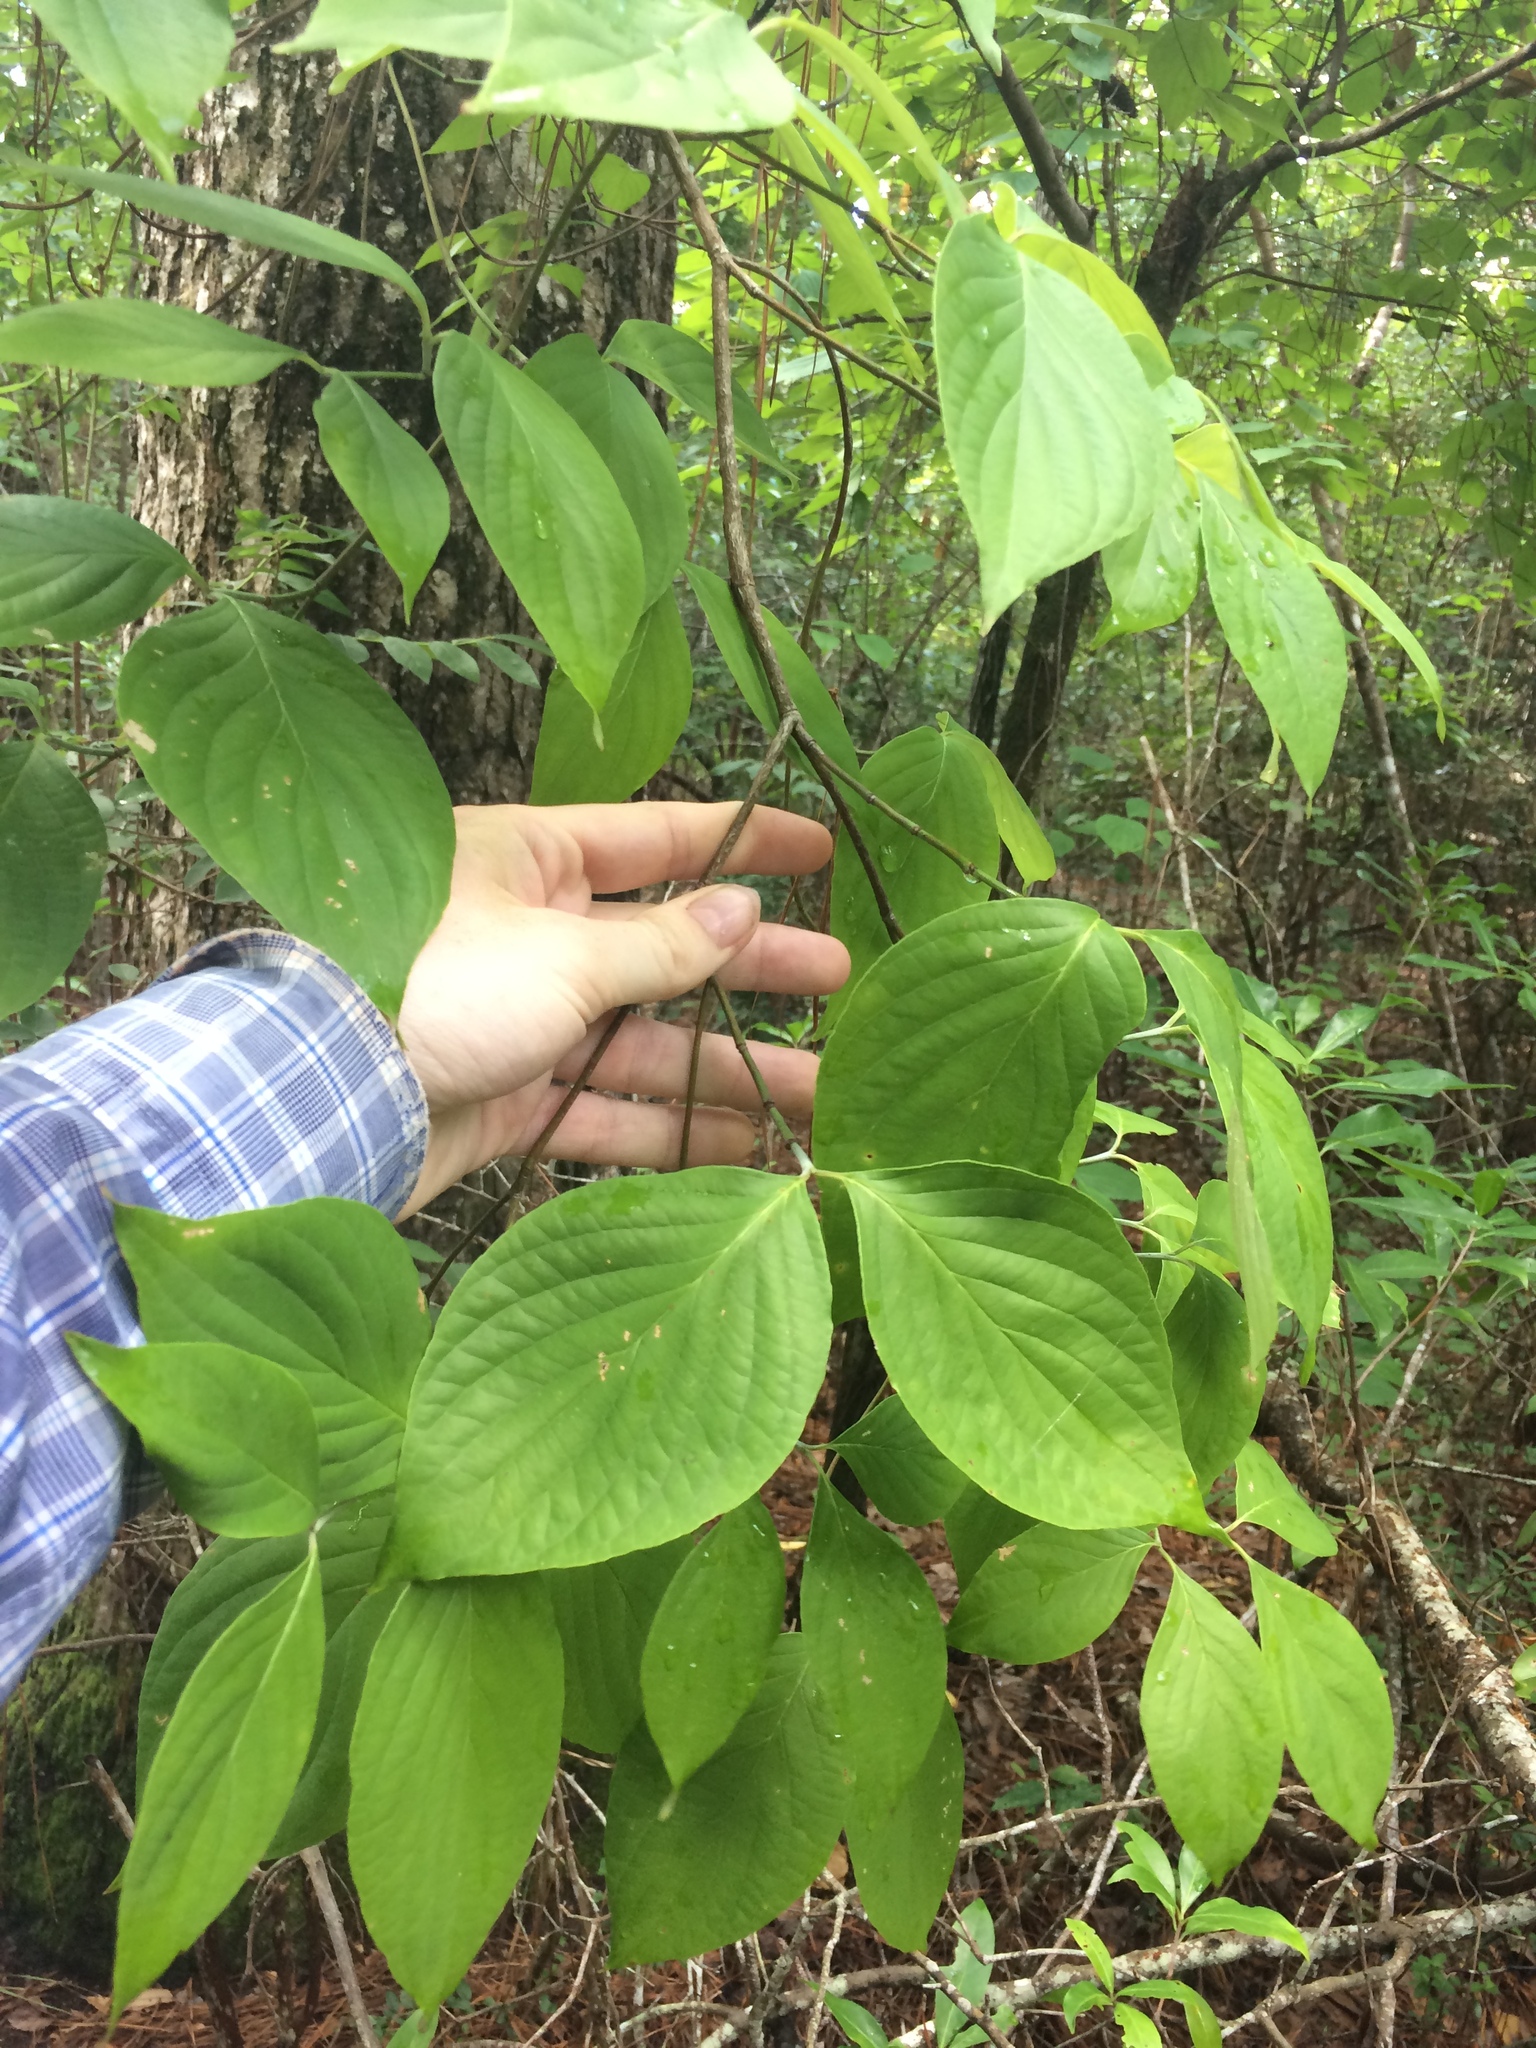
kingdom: Plantae
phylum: Tracheophyta
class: Magnoliopsida
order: Cornales
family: Cornaceae
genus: Cornus
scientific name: Cornus florida
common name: Flowering dogwood
